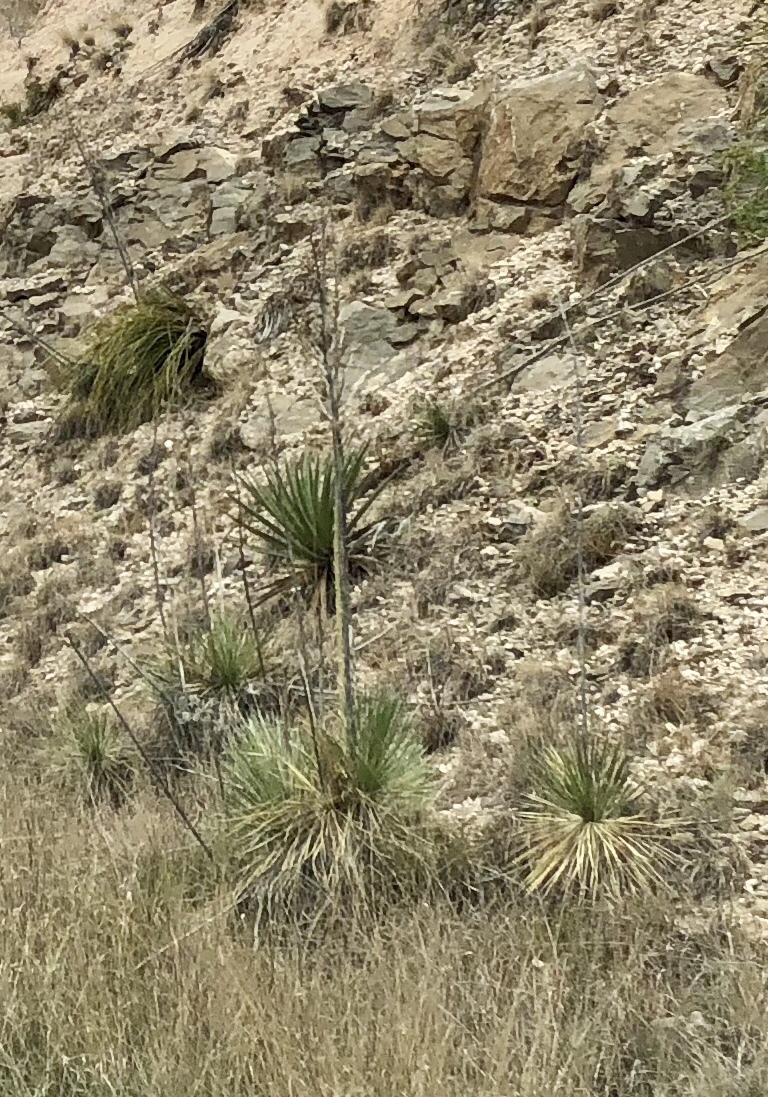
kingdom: Plantae
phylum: Tracheophyta
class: Liliopsida
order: Asparagales
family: Asparagaceae
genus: Yucca
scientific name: Yucca elata
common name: Palmella
